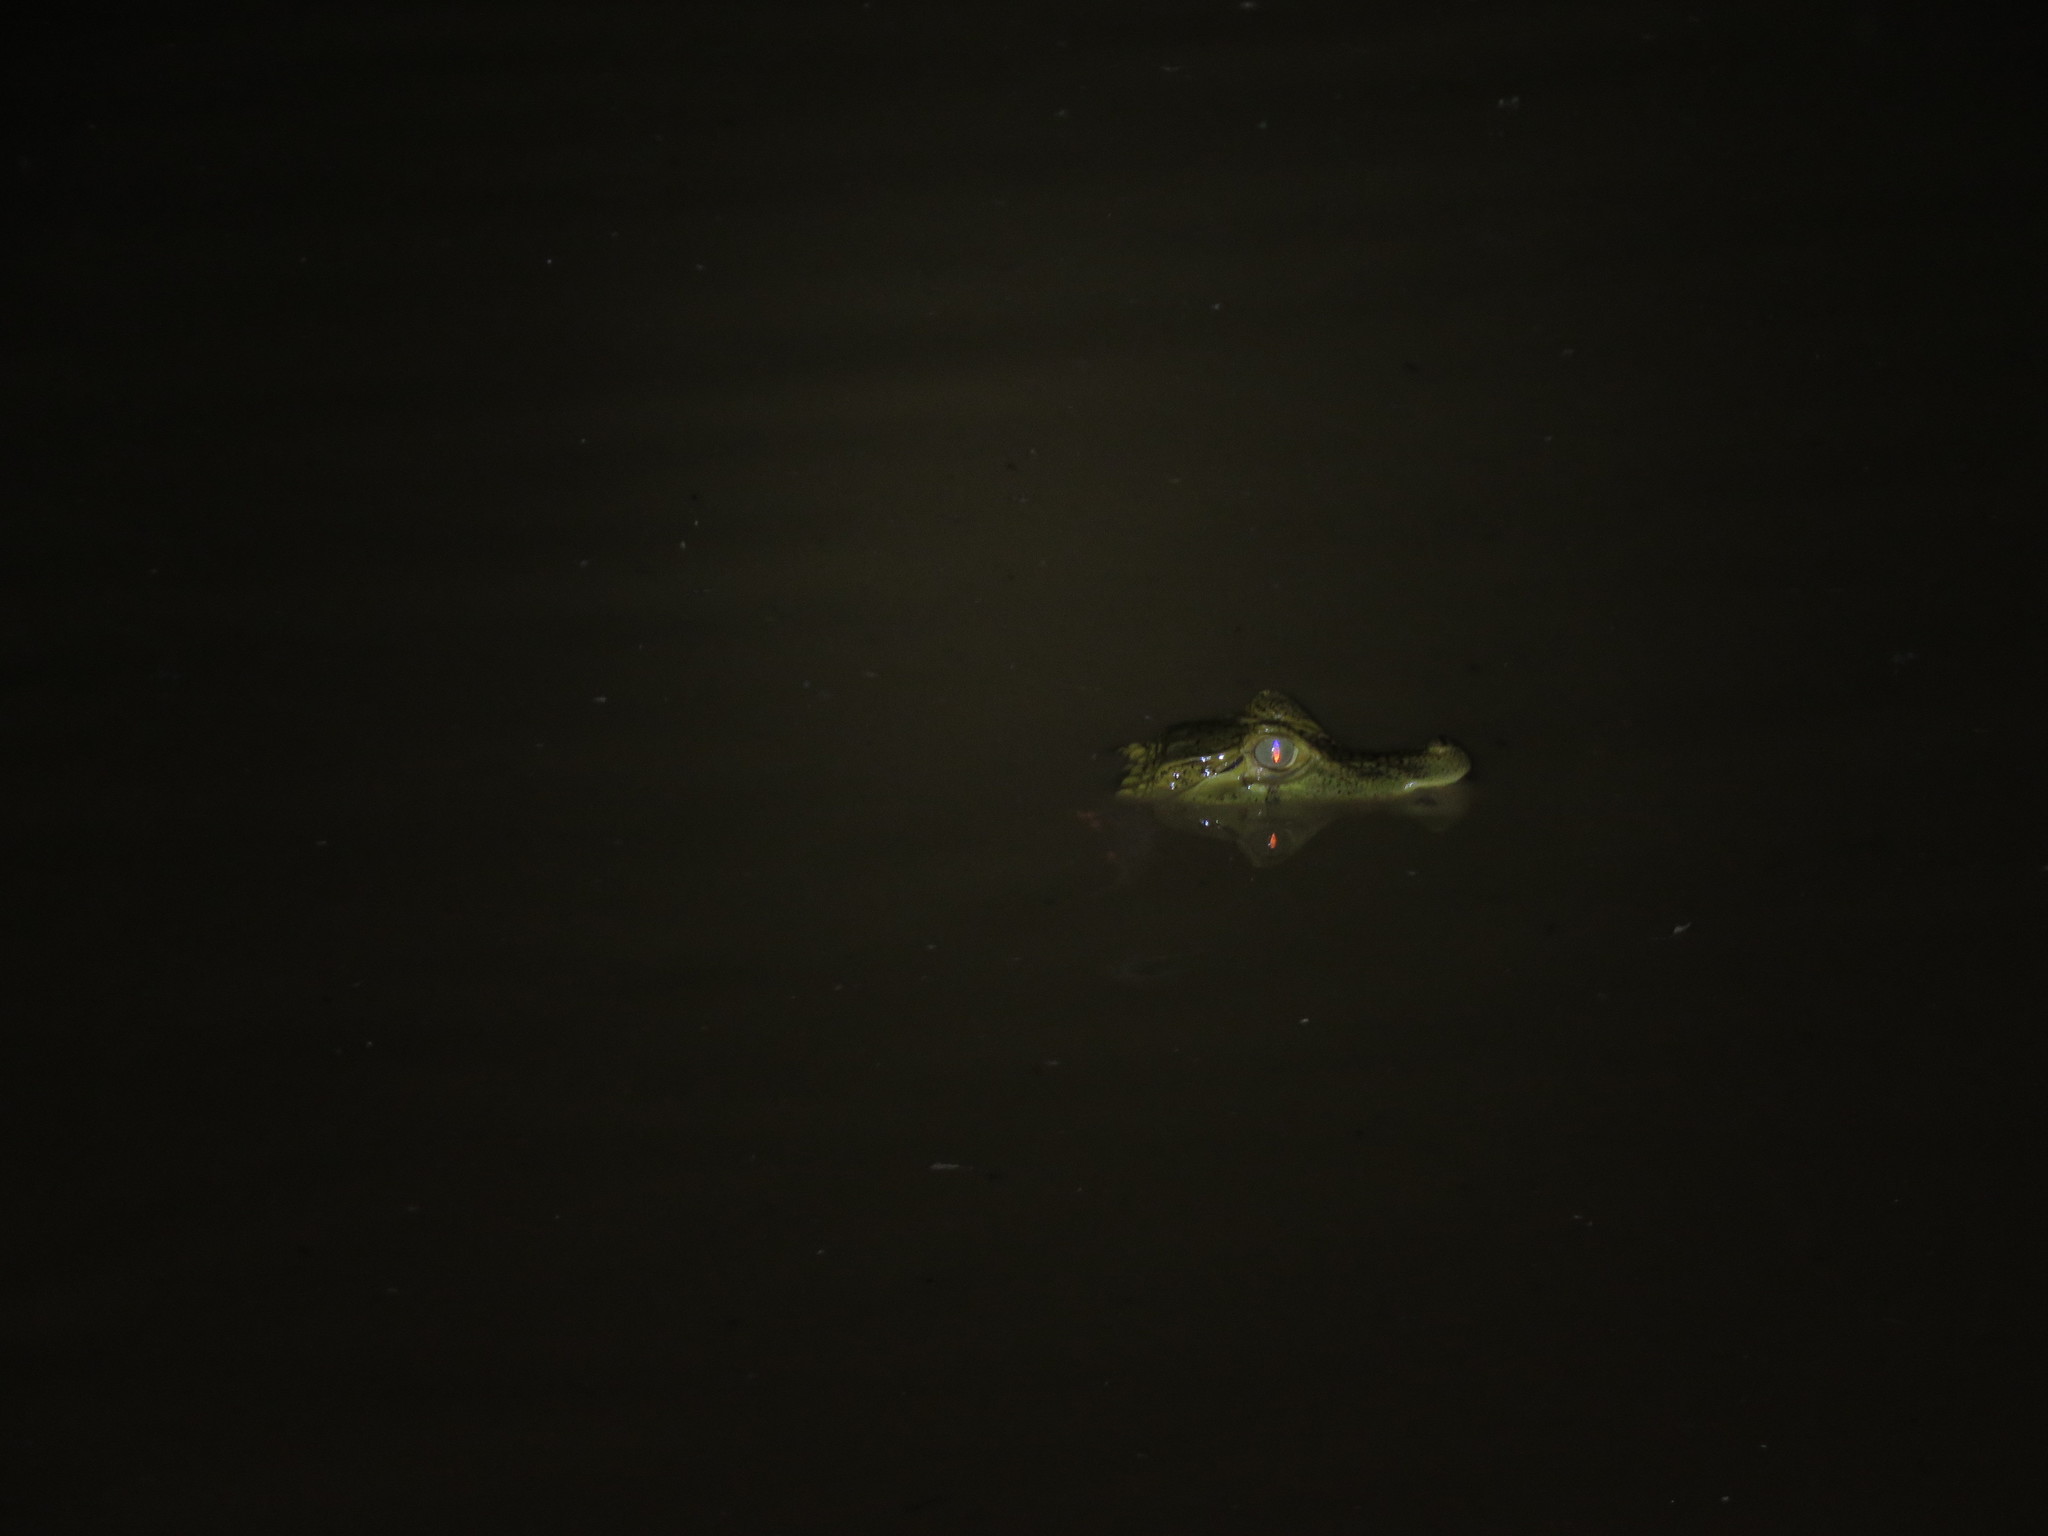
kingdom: Animalia
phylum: Chordata
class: Crocodylia
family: Alligatoridae
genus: Caiman
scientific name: Caiman yacare
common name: Yacare caiman
